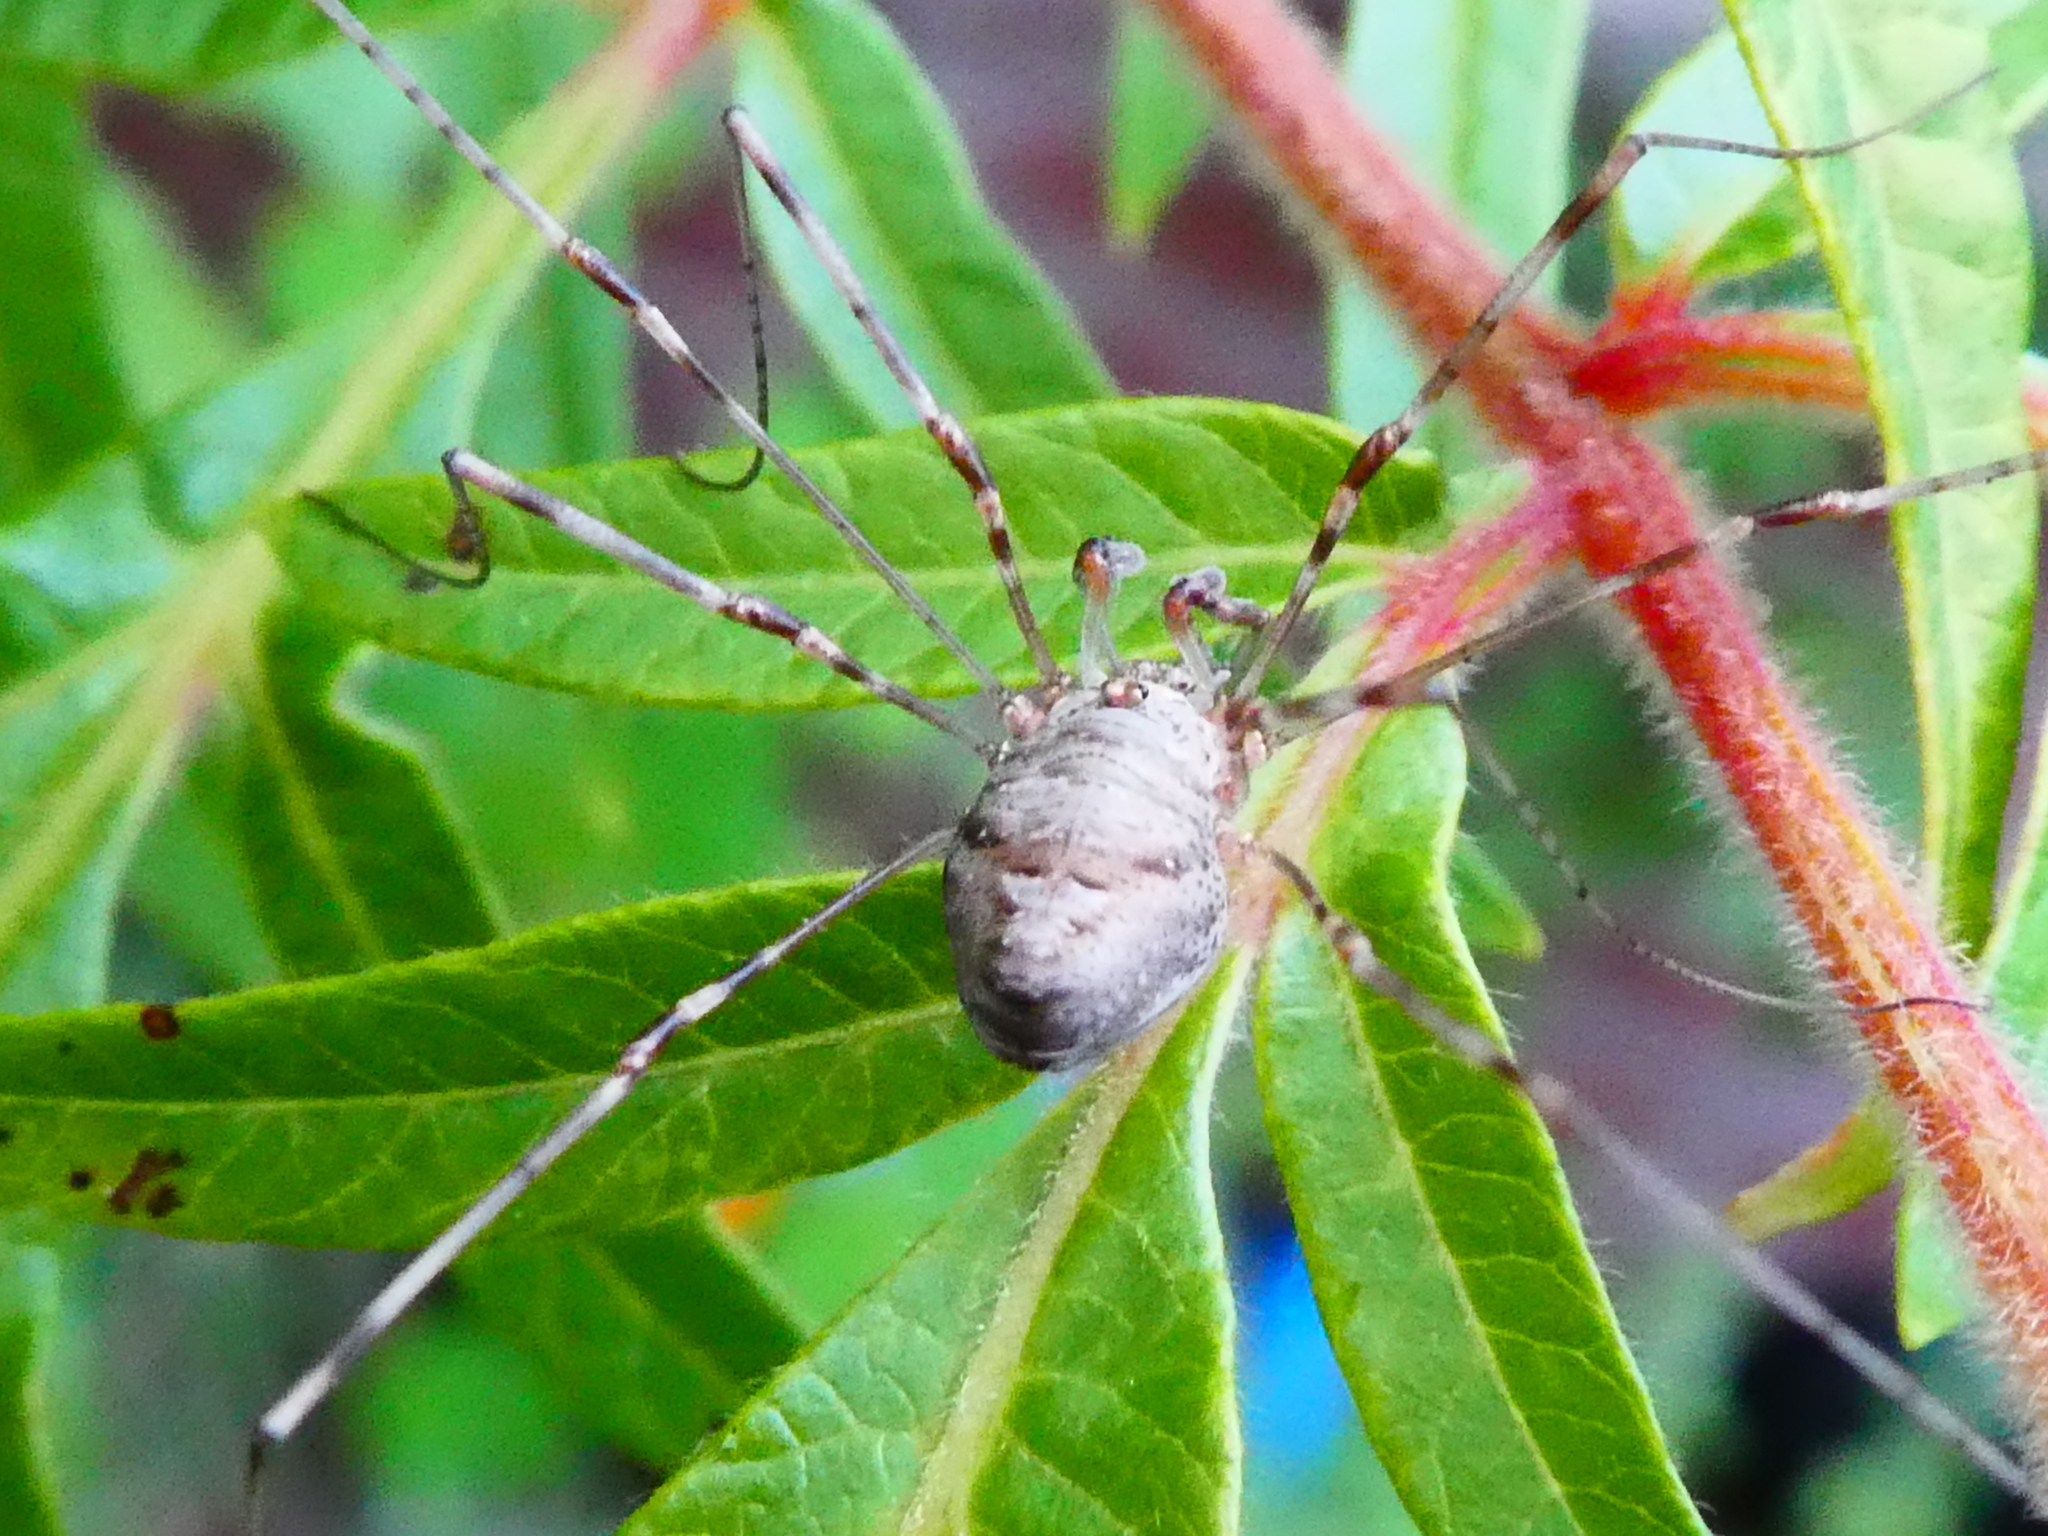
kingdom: Animalia
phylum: Arthropoda
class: Arachnida
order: Opiliones
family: Phalangiidae
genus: Dicranopalpus
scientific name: Dicranopalpus ramosus
